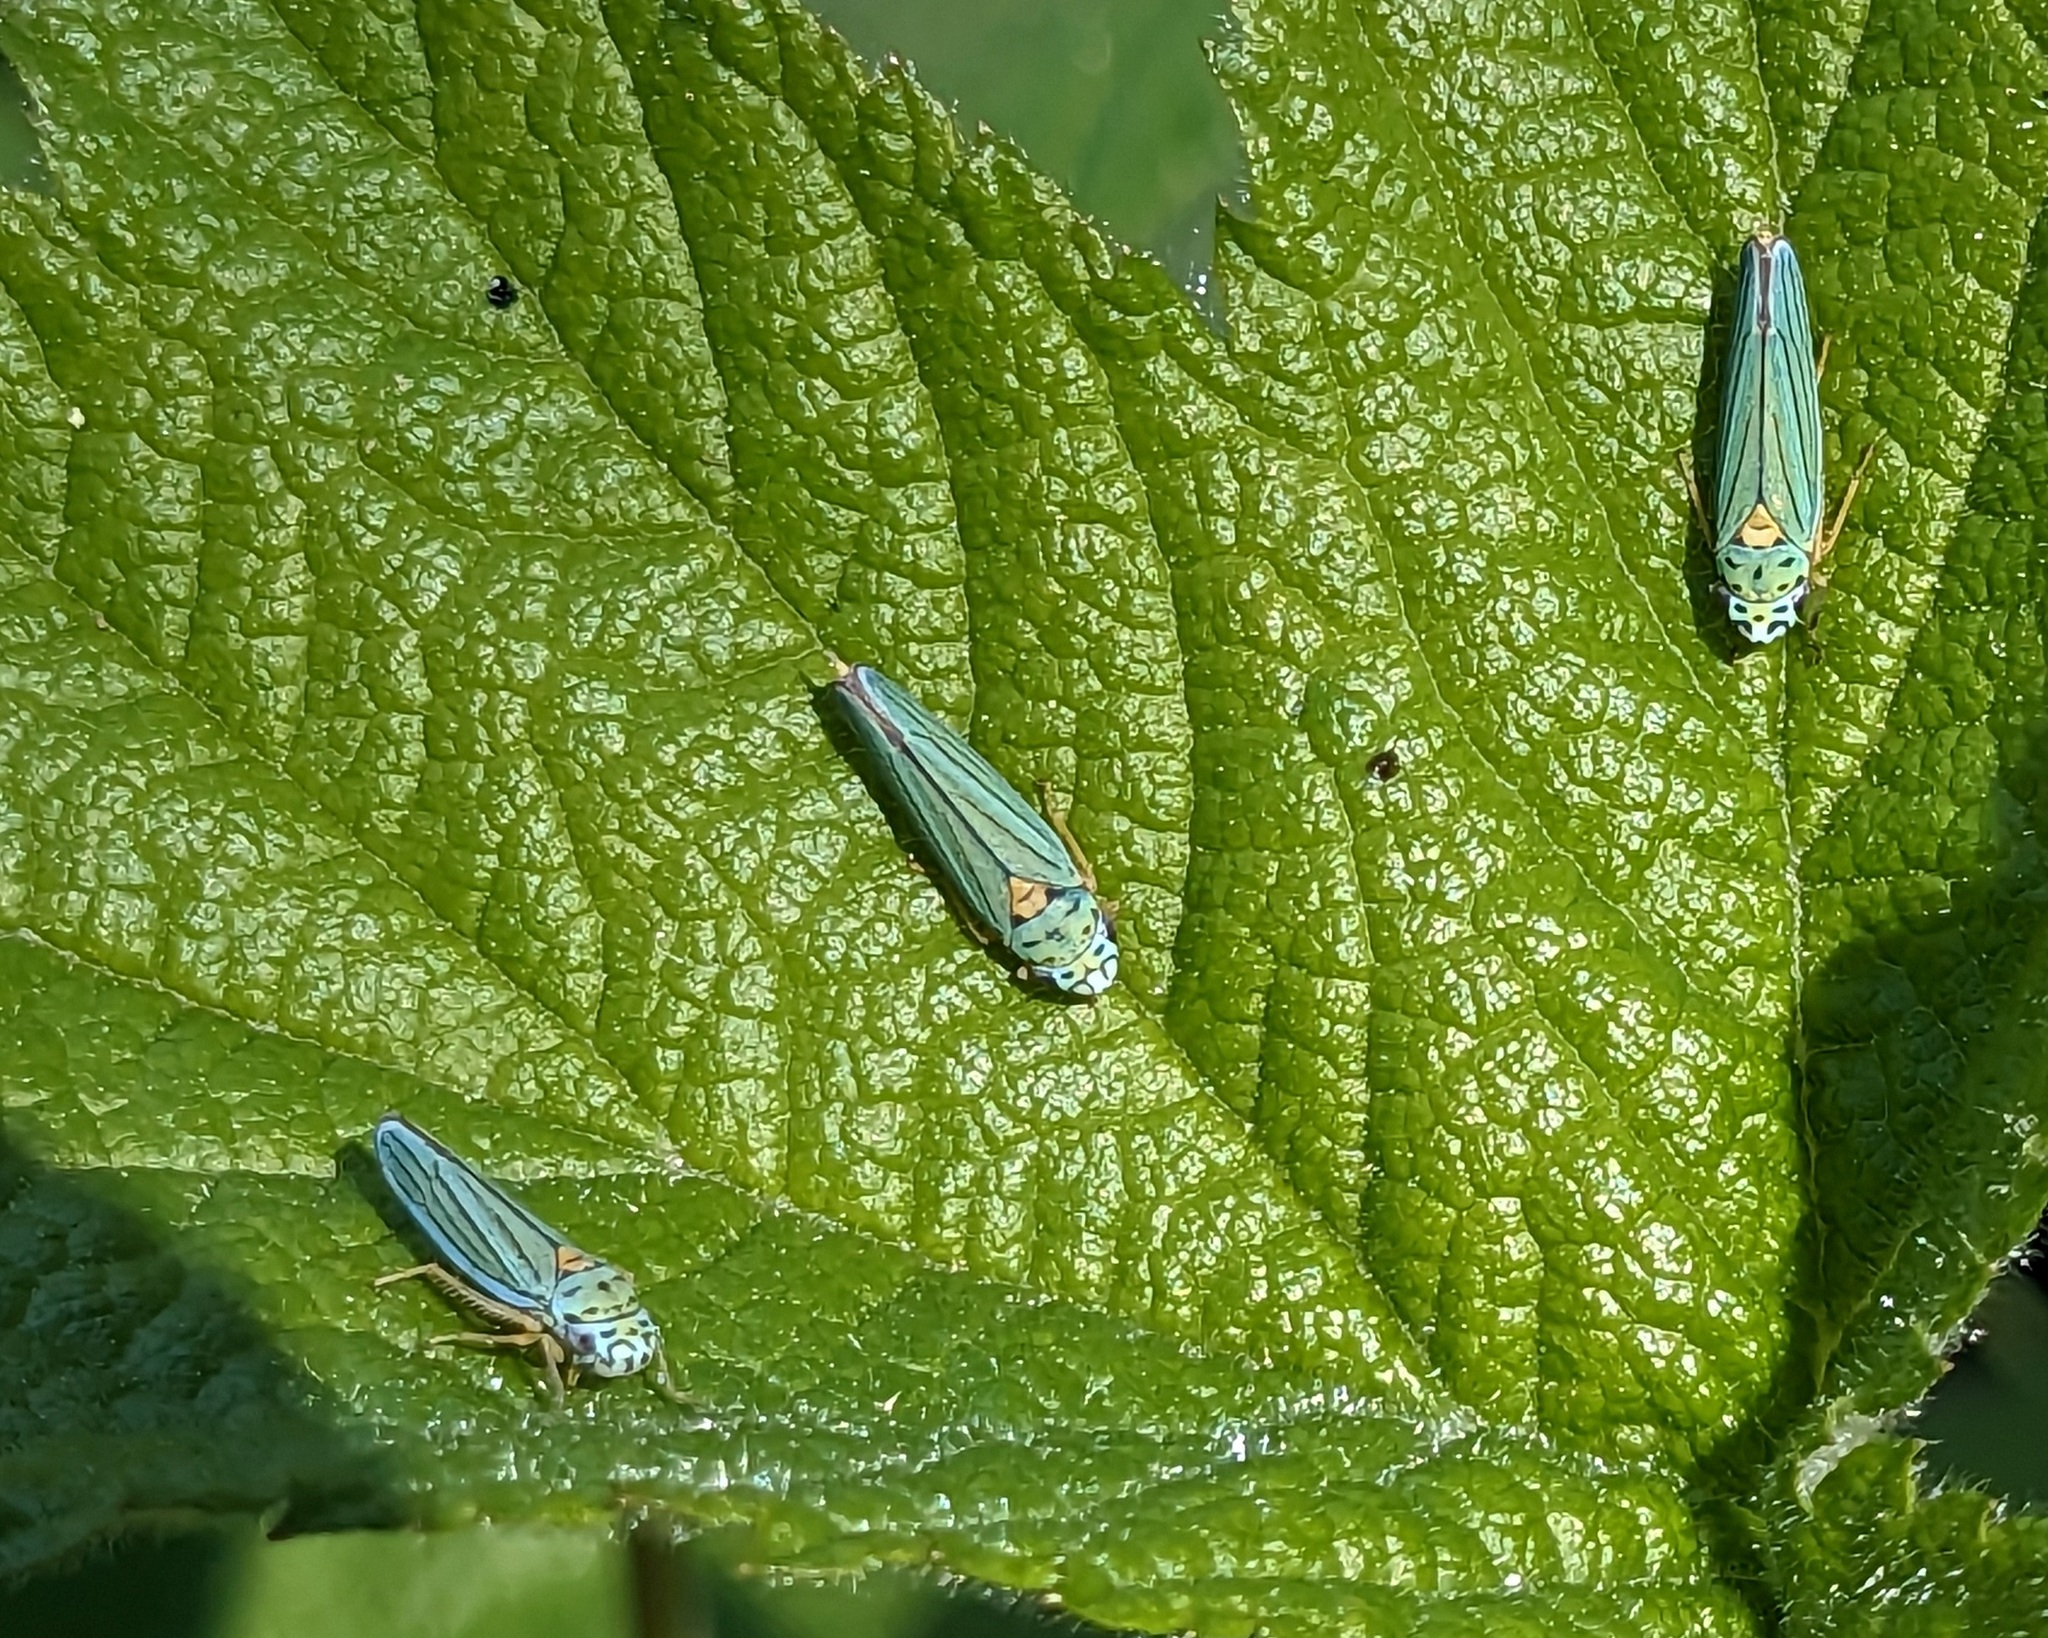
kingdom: Animalia
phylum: Arthropoda
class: Insecta
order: Hemiptera
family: Cicadellidae
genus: Graphocephala
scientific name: Graphocephala atropunctata
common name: Blue-green sharpshooter
